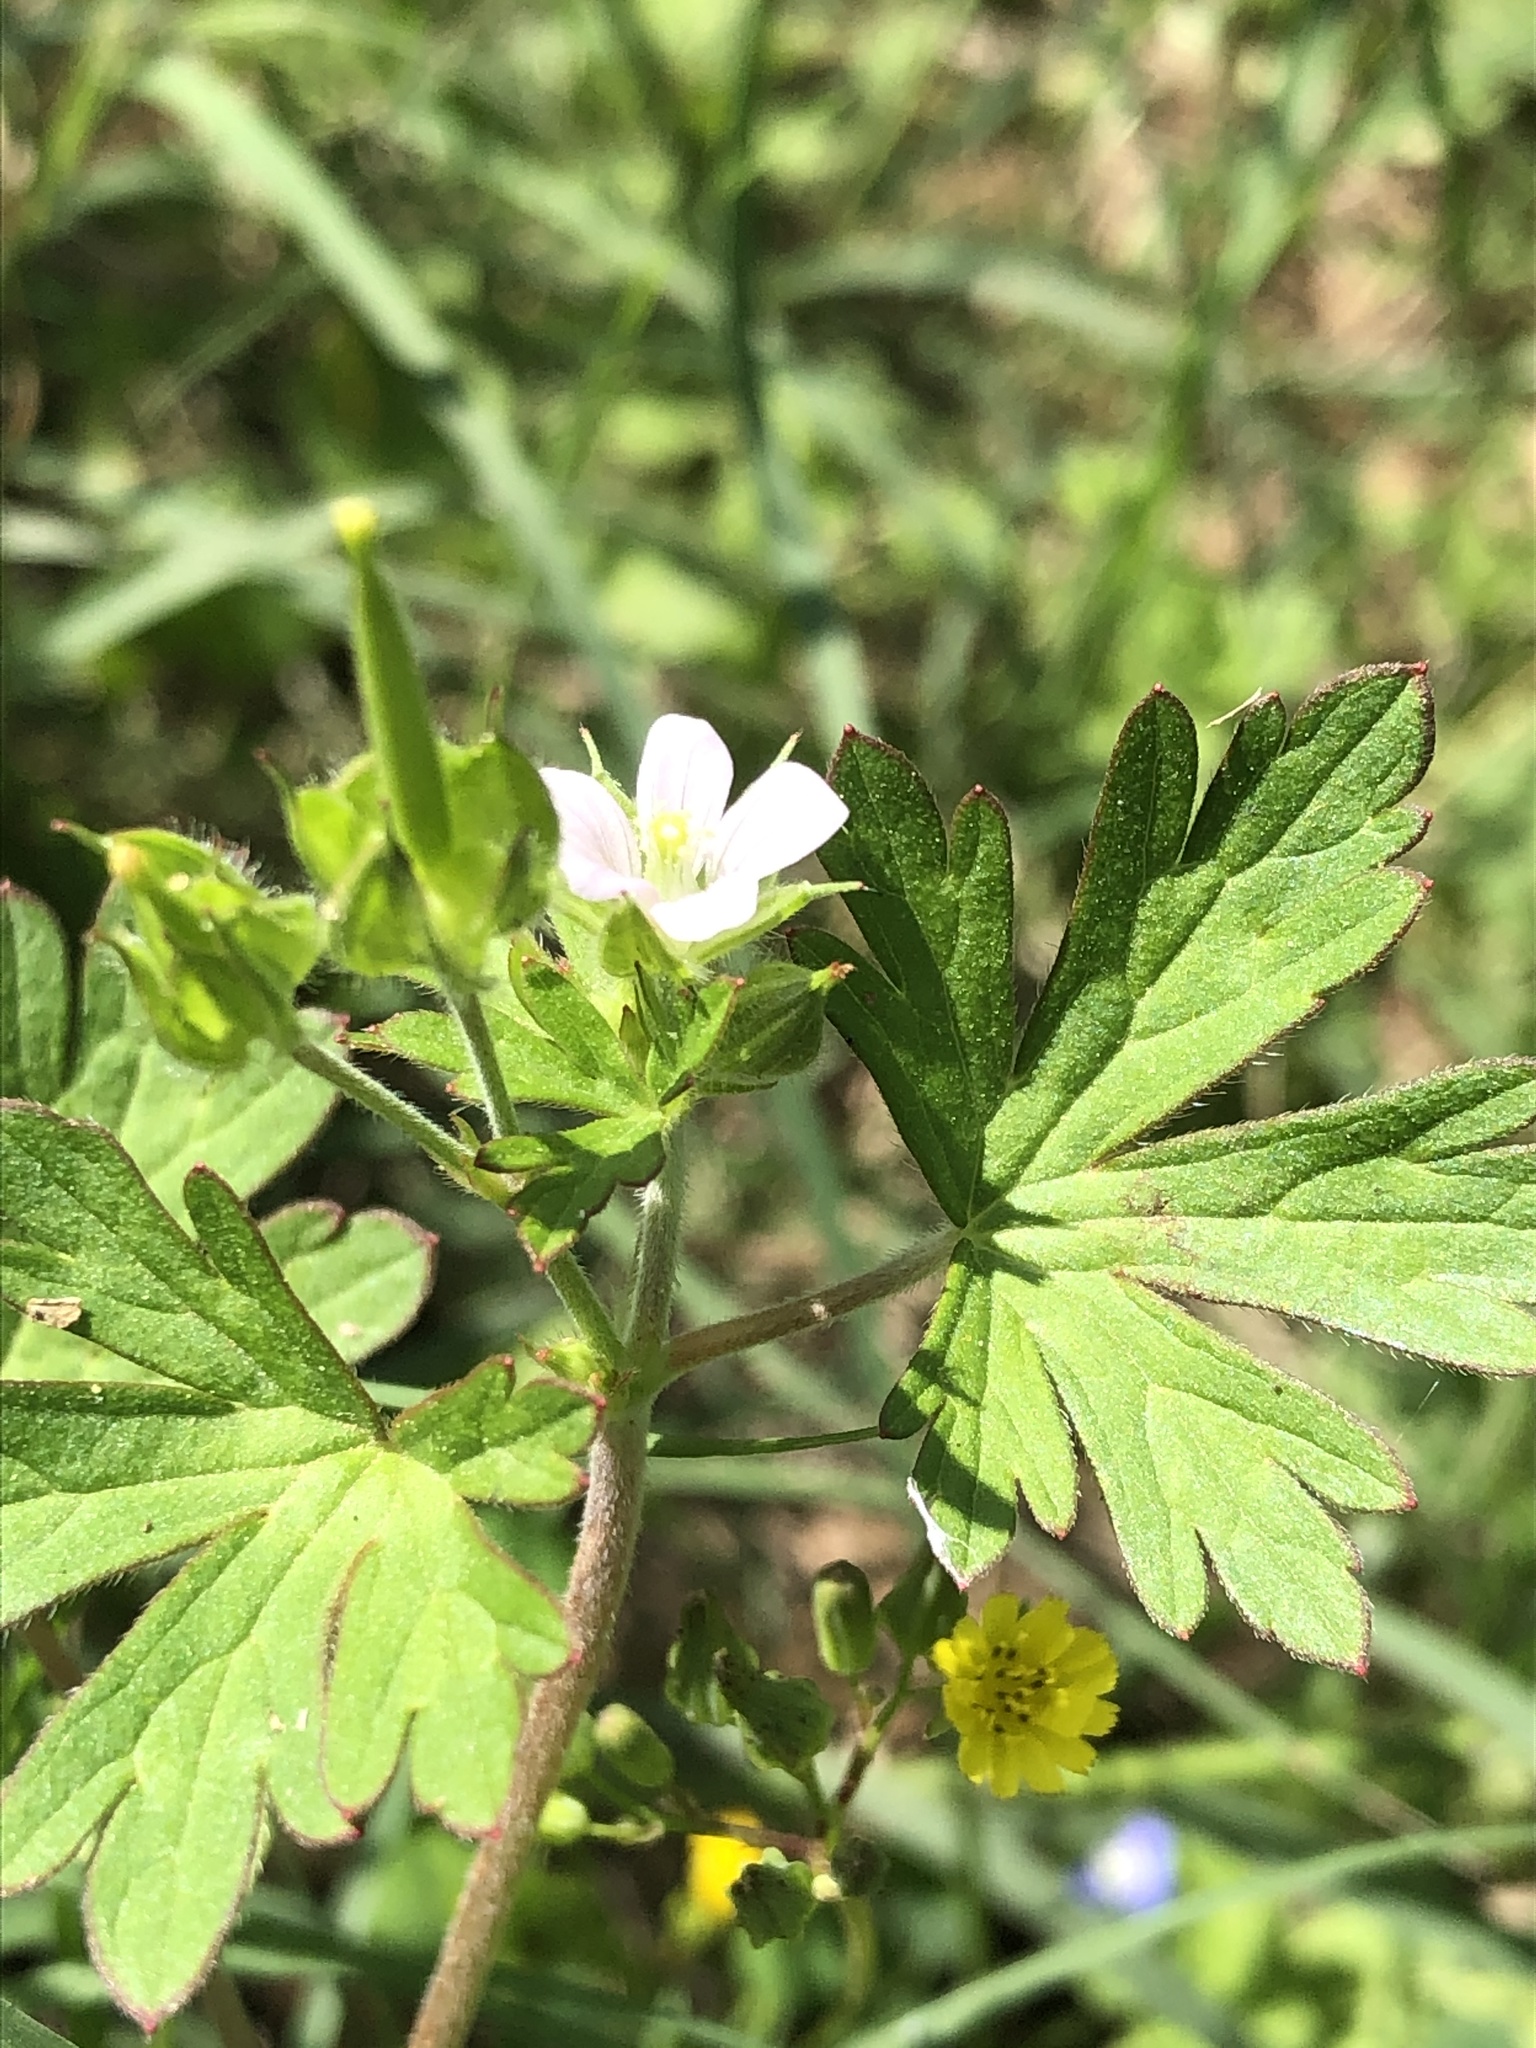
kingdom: Plantae
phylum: Tracheophyta
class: Magnoliopsida
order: Geraniales
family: Geraniaceae
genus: Geranium
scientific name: Geranium carolinianum
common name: Carolina crane's-bill
